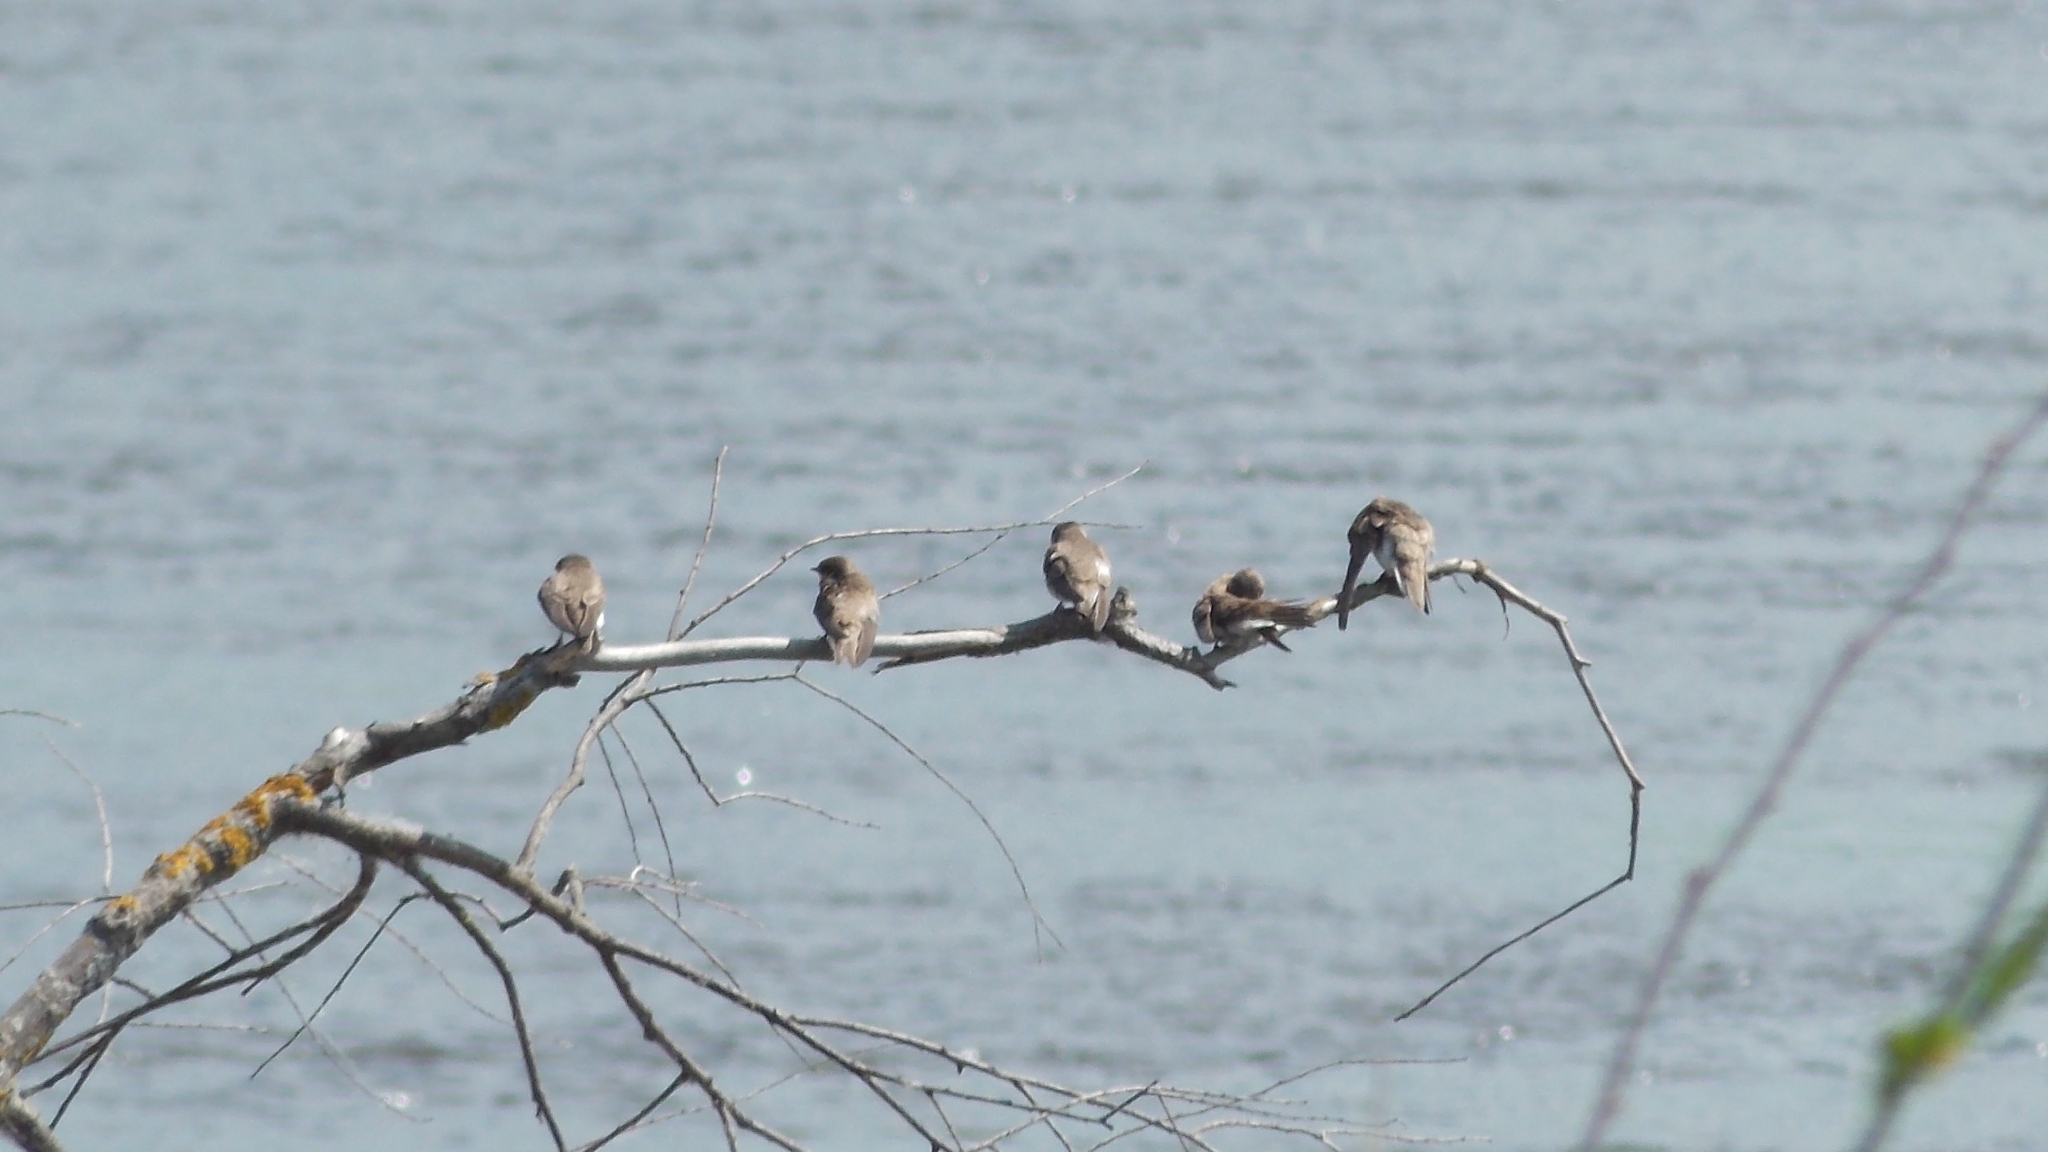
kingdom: Animalia
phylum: Chordata
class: Aves
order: Passeriformes
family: Hirundinidae
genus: Riparia
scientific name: Riparia riparia
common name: Sand martin
